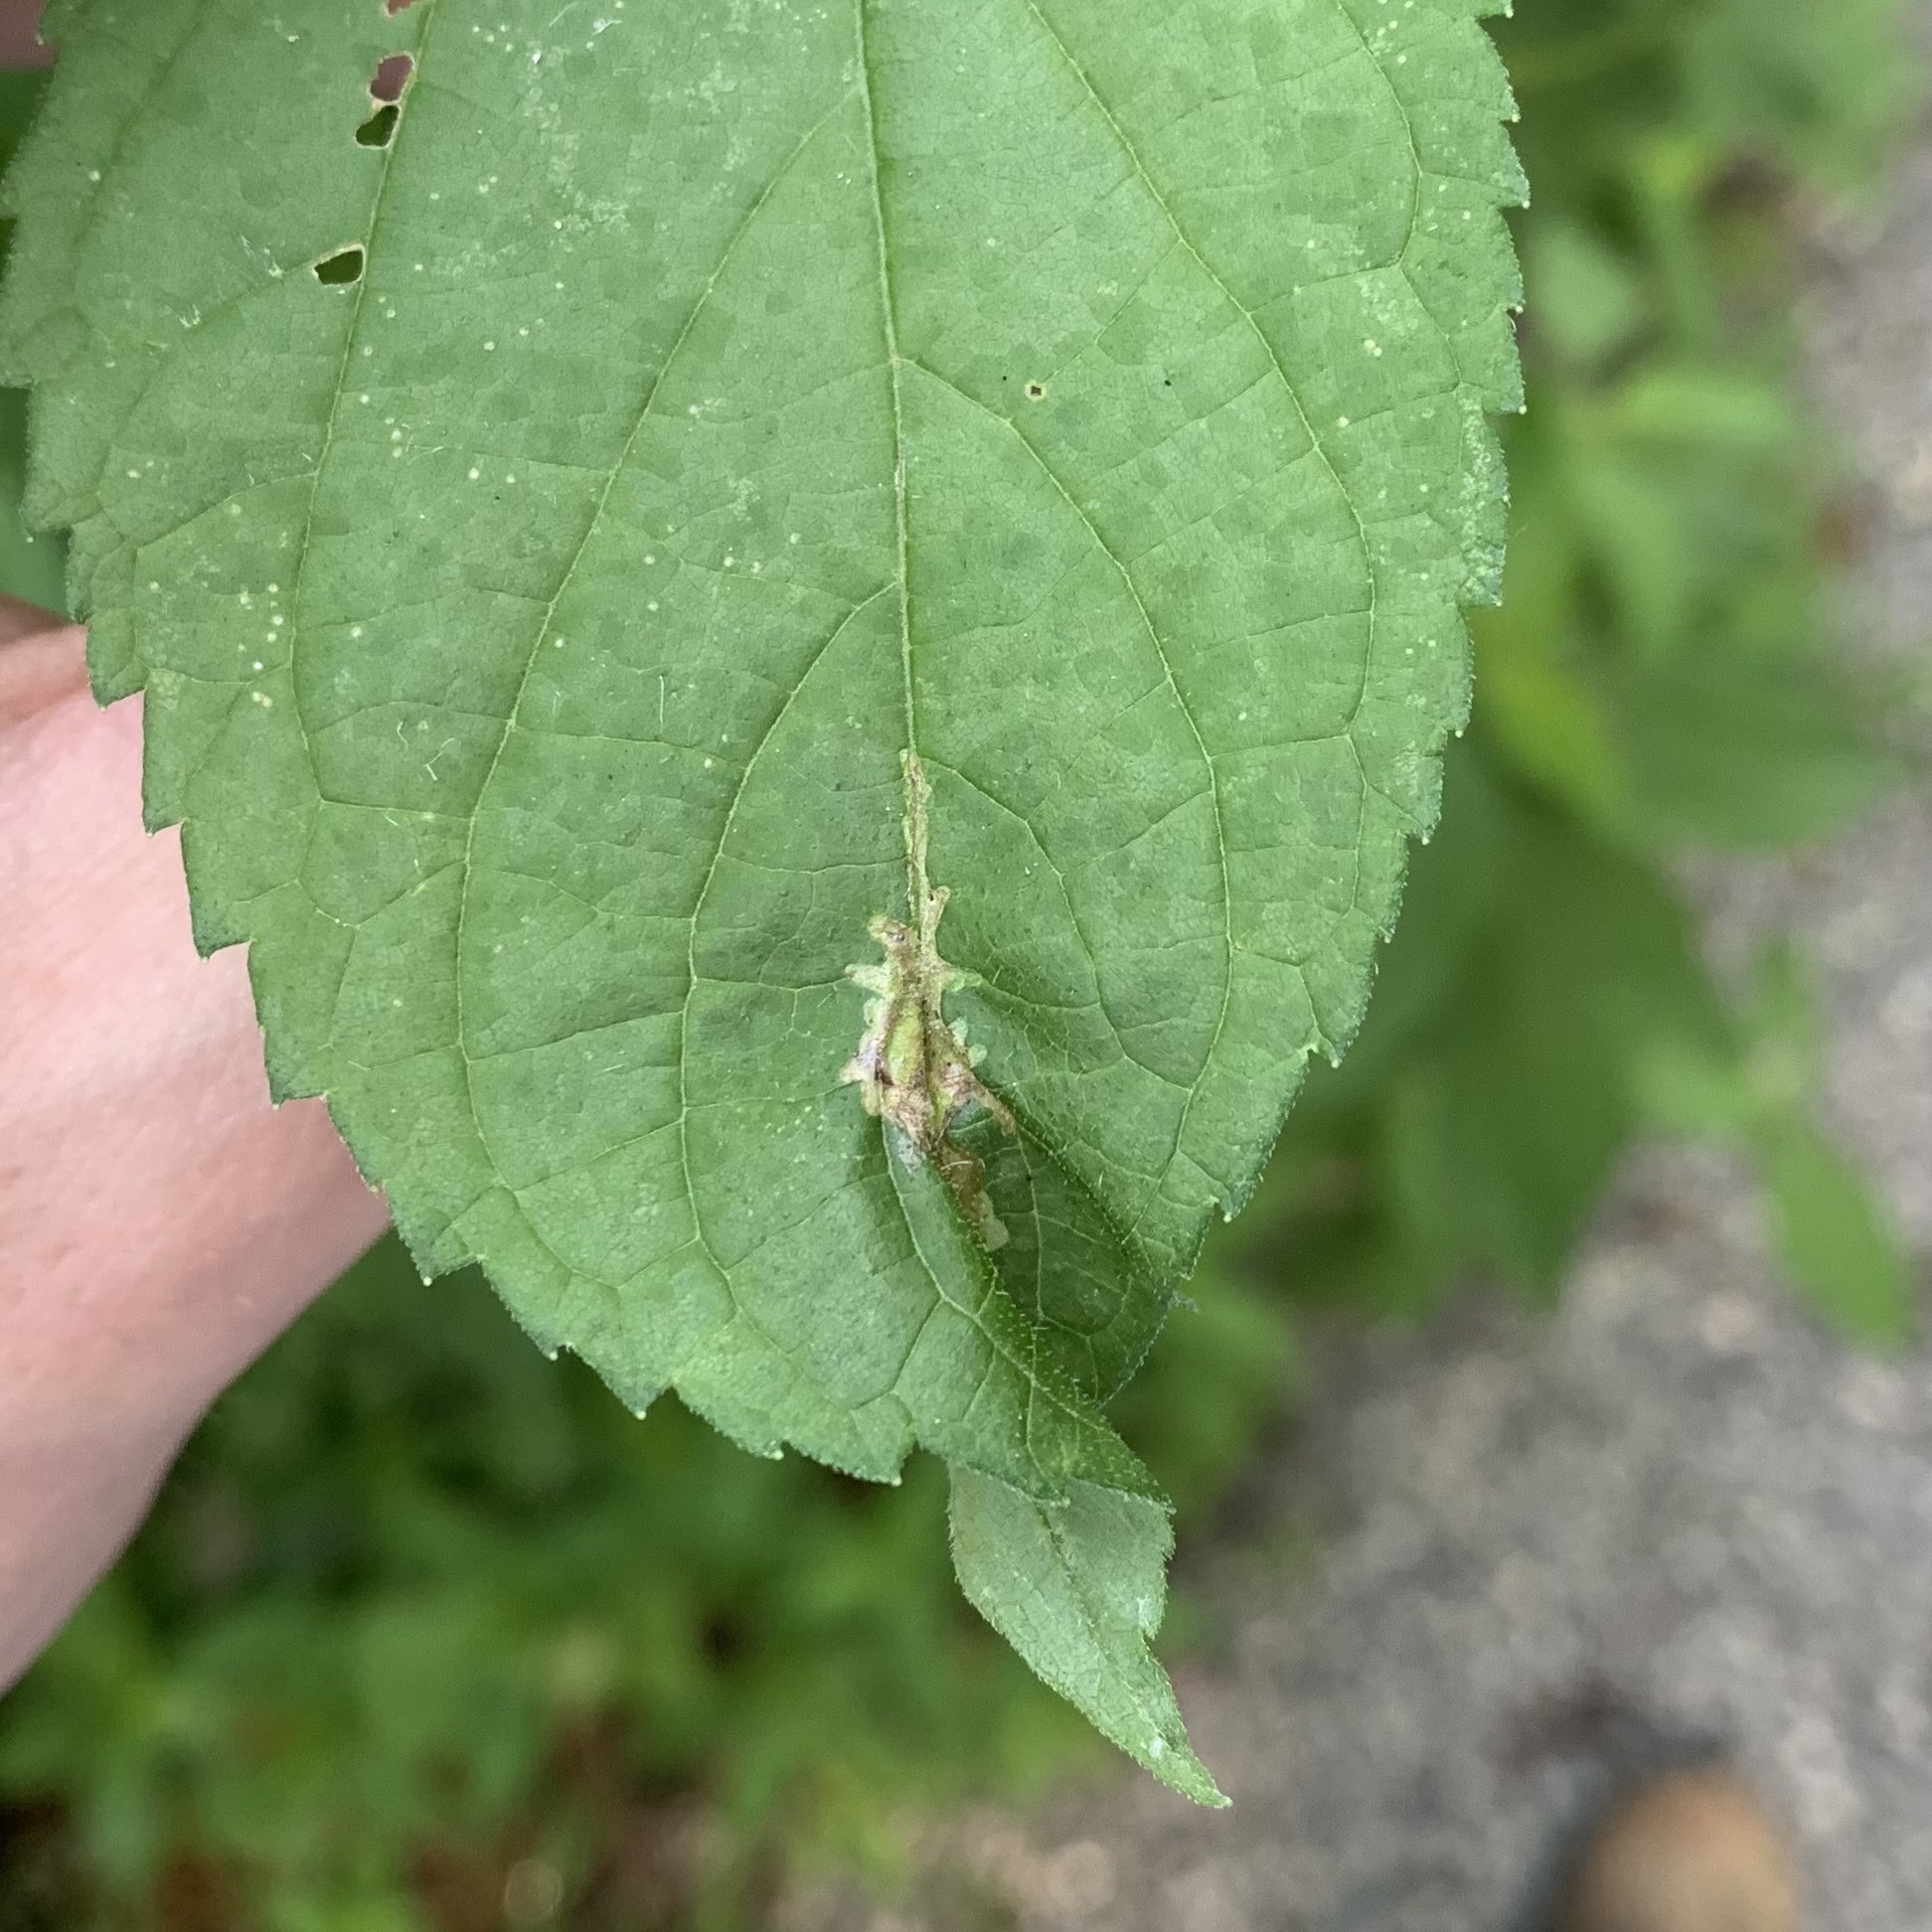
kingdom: Animalia
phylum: Arthropoda
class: Insecta
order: Diptera
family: Agromyzidae
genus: Calycomyza
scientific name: Calycomyza platyptera
